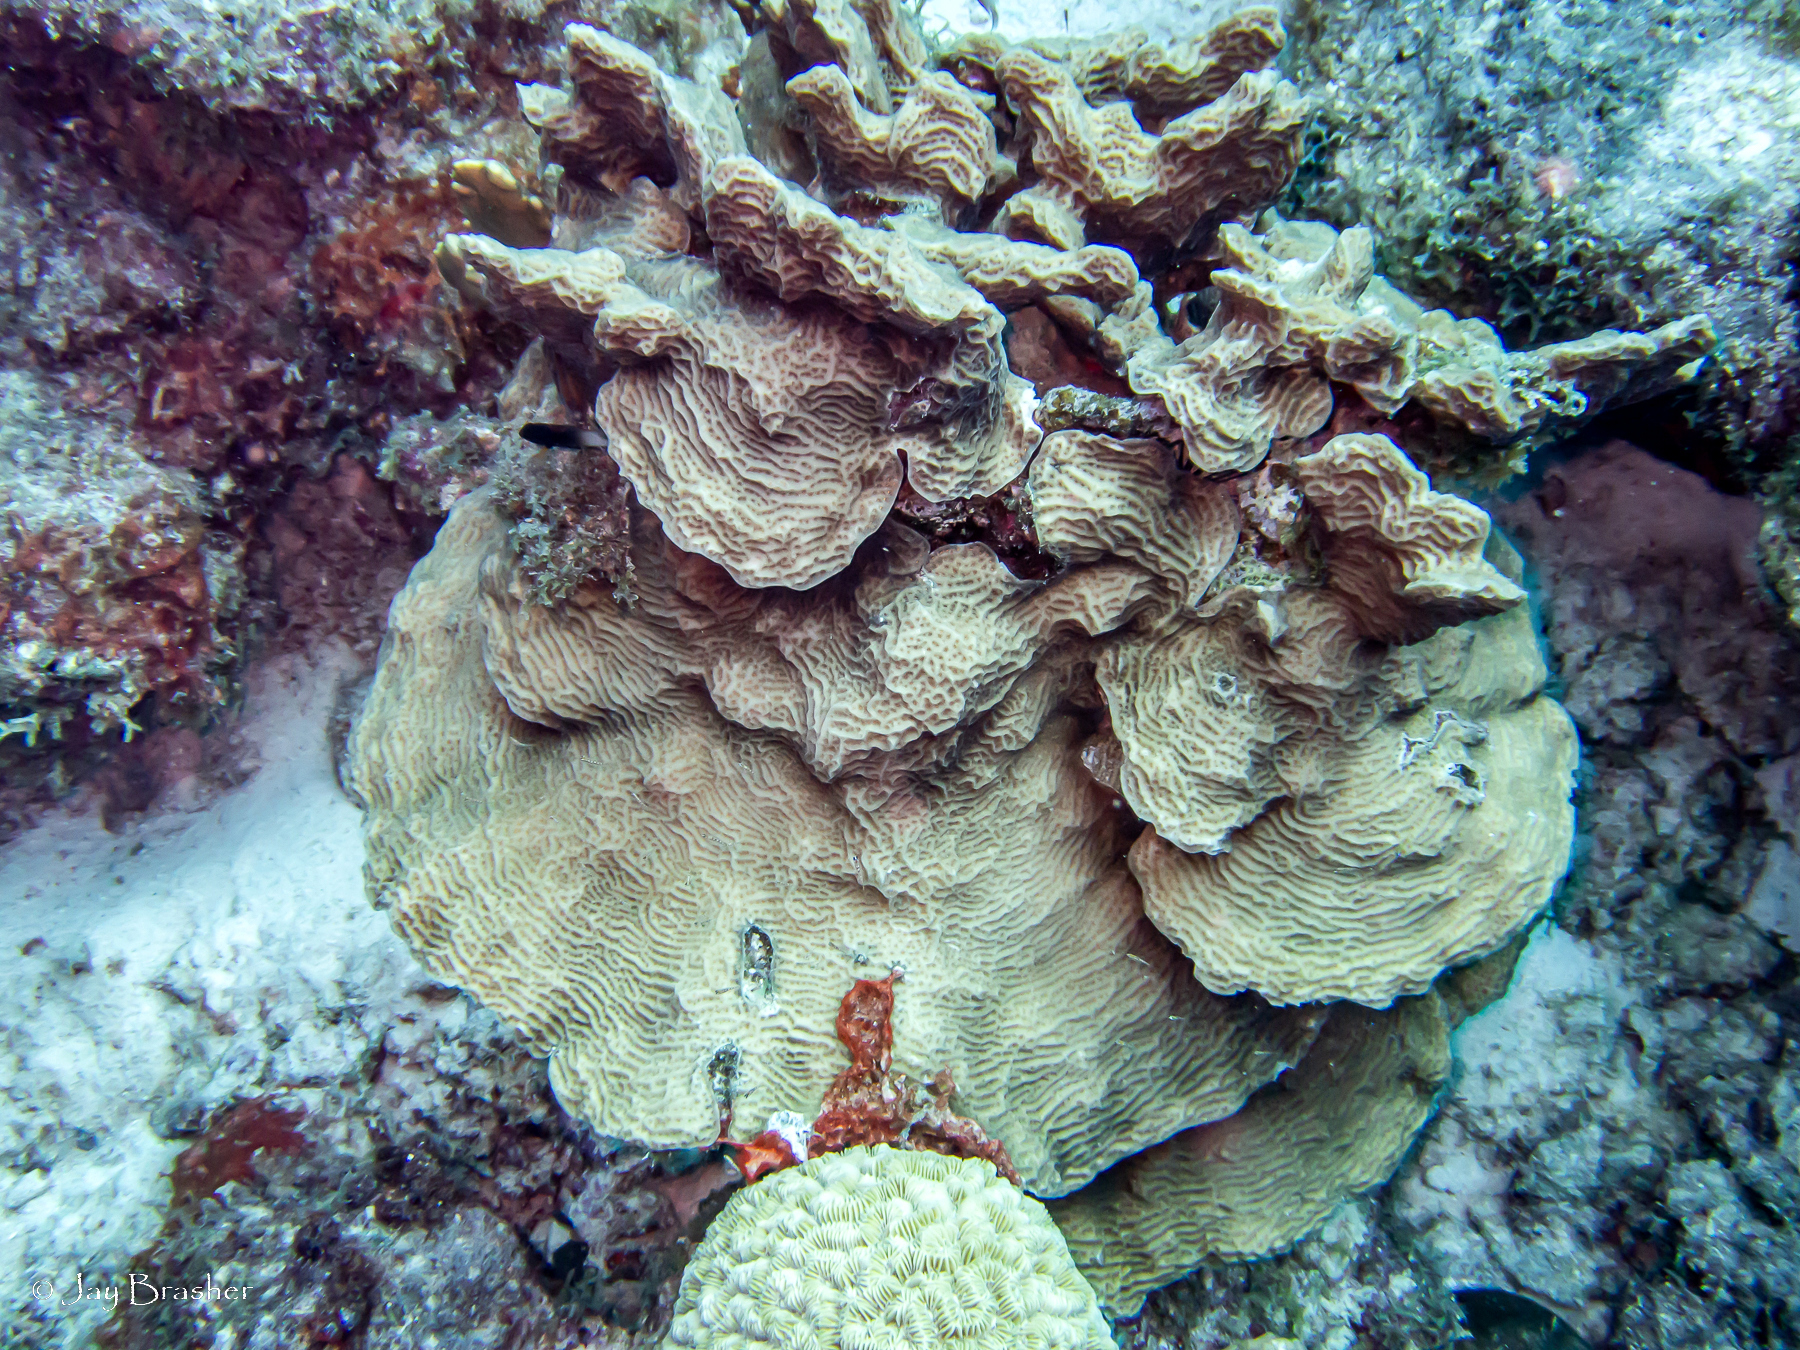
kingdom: Animalia
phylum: Cnidaria
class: Anthozoa
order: Scleractinia
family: Meandrinidae
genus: Meandrina
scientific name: Meandrina meandrites
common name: Maze coral
